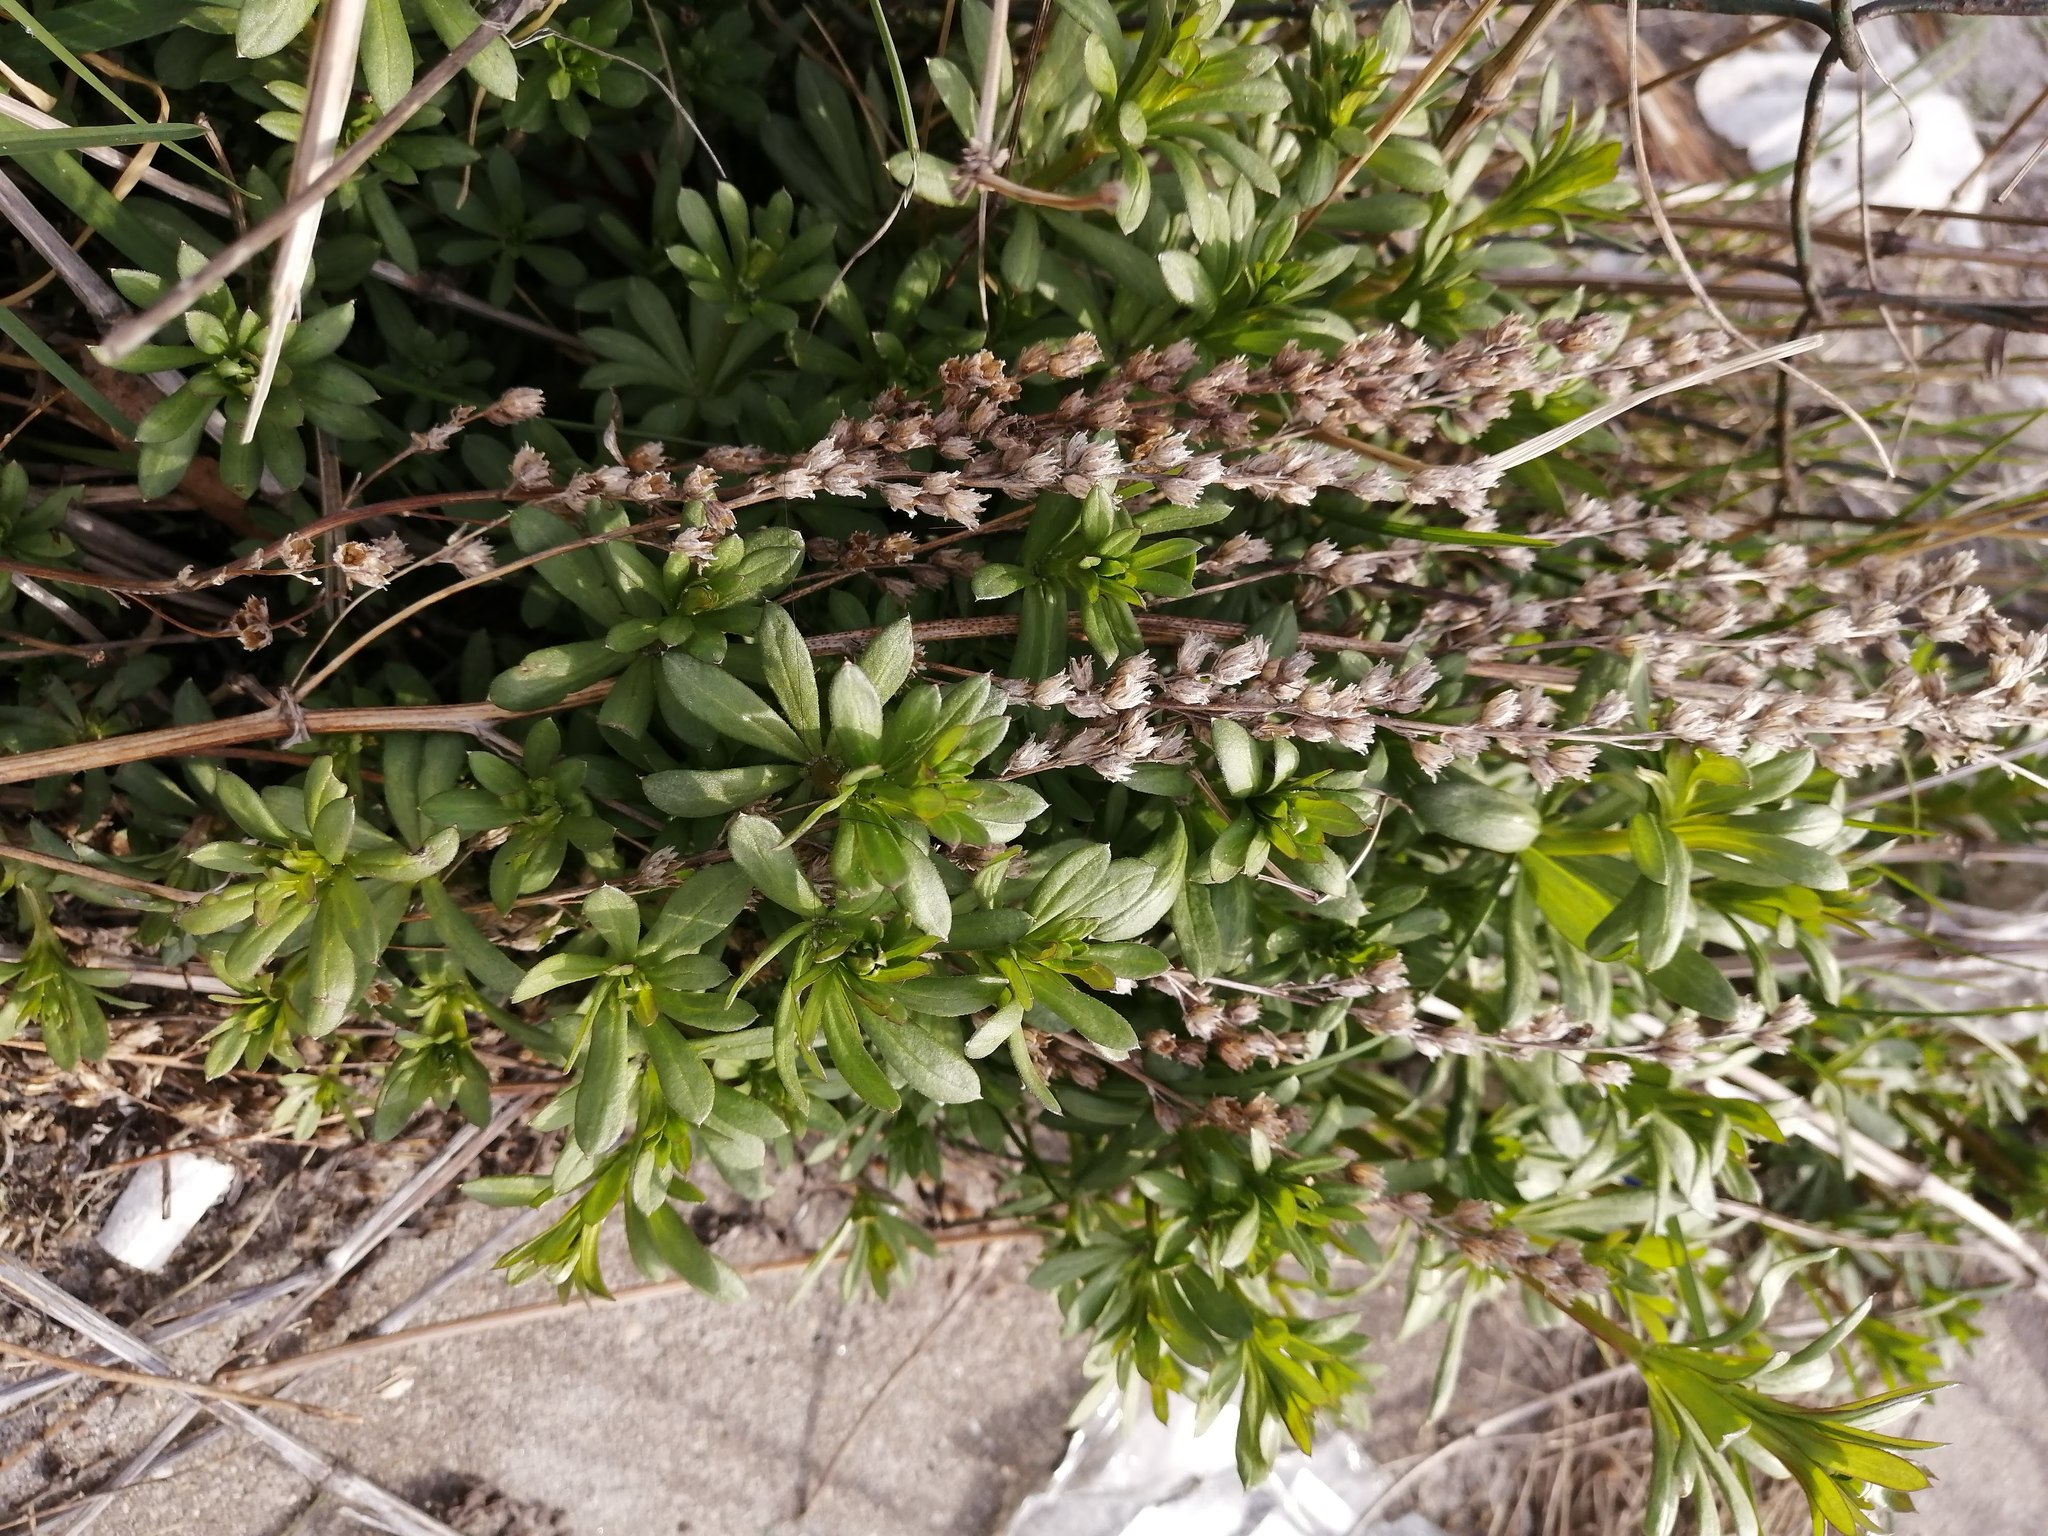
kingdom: Plantae
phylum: Tracheophyta
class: Magnoliopsida
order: Gentianales
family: Rubiaceae
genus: Galium
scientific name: Galium mollugo
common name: Hedge bedstraw
